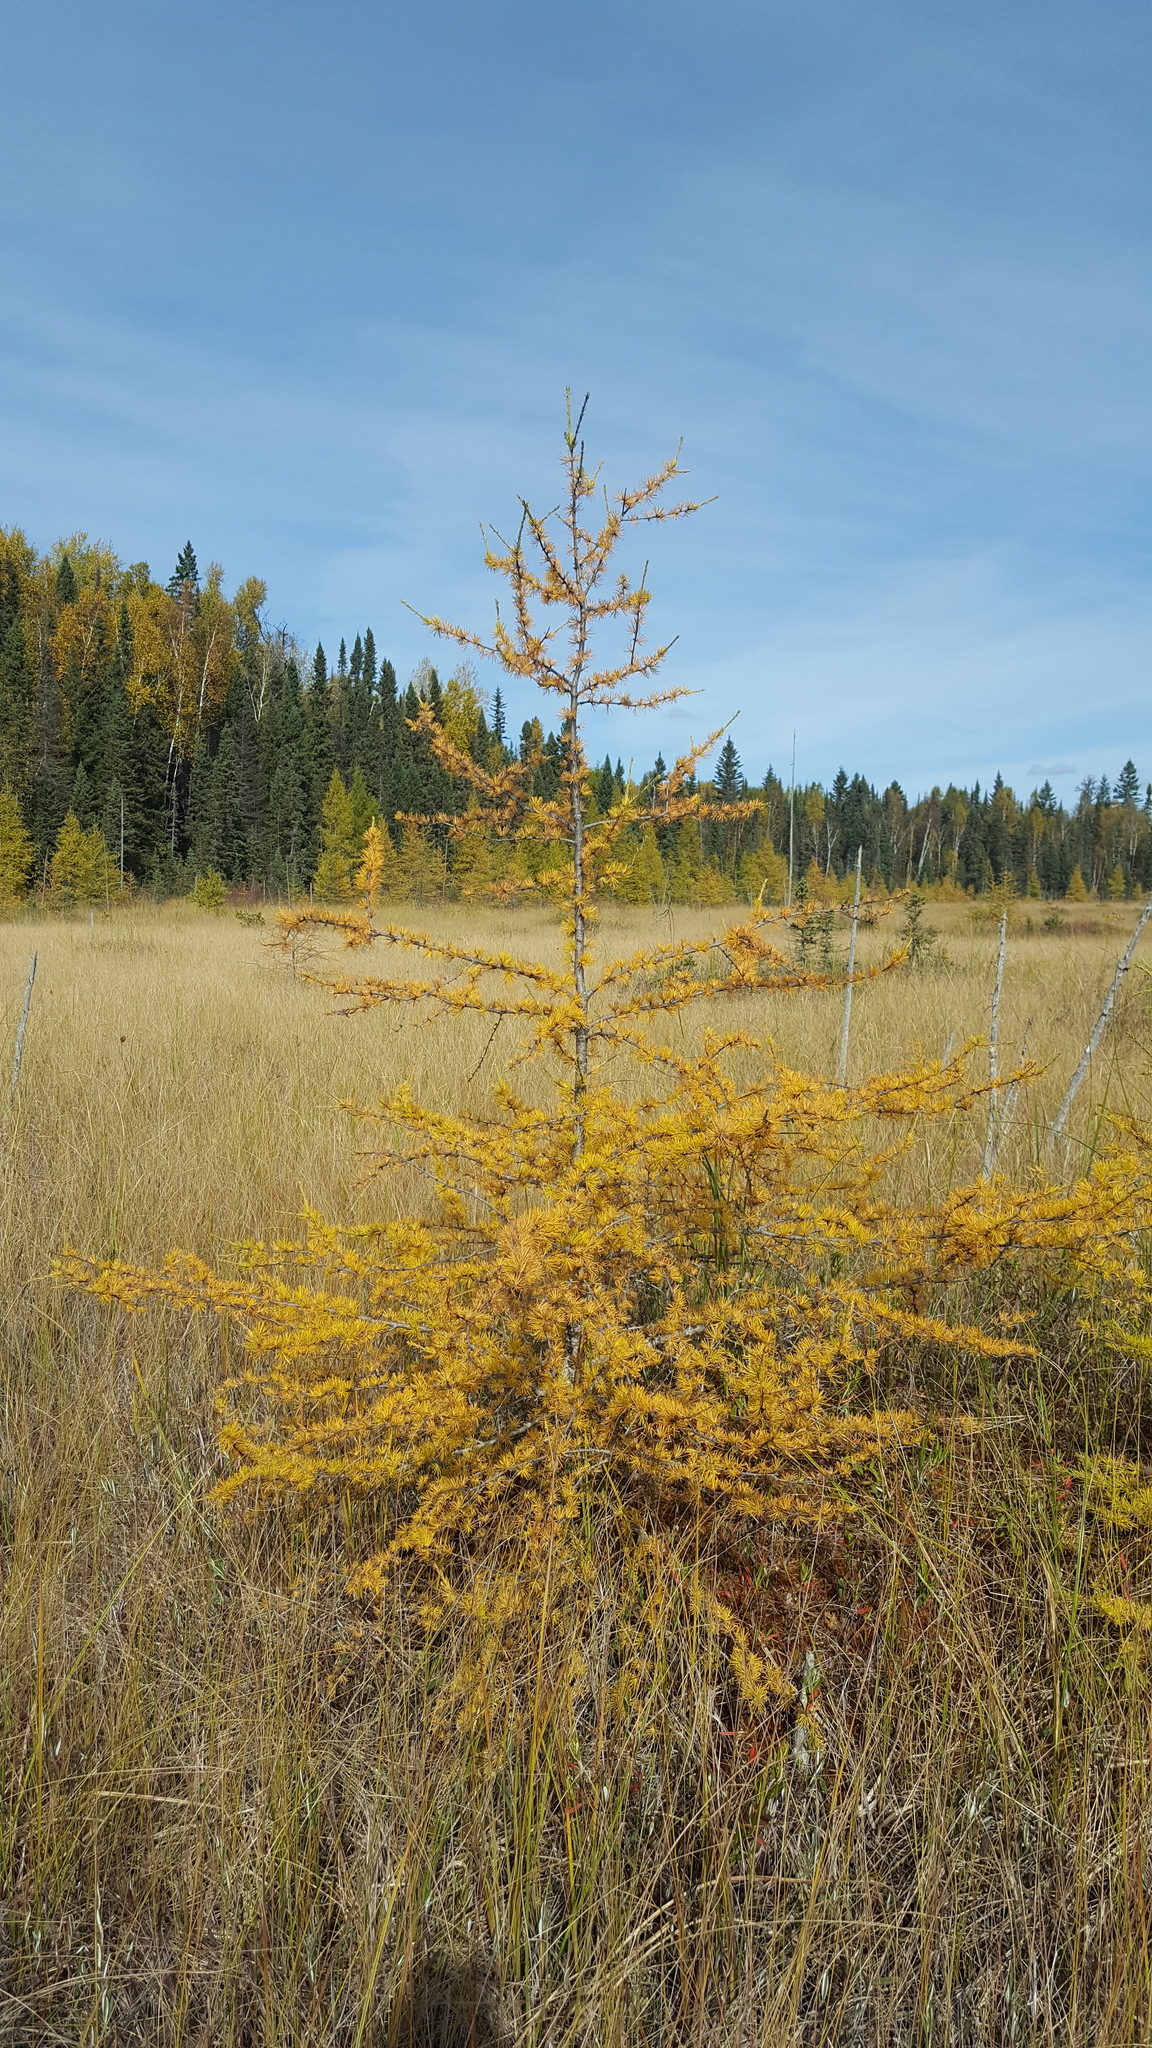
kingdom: Plantae
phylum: Tracheophyta
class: Pinopsida
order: Pinales
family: Pinaceae
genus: Larix
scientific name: Larix laricina
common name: American larch
